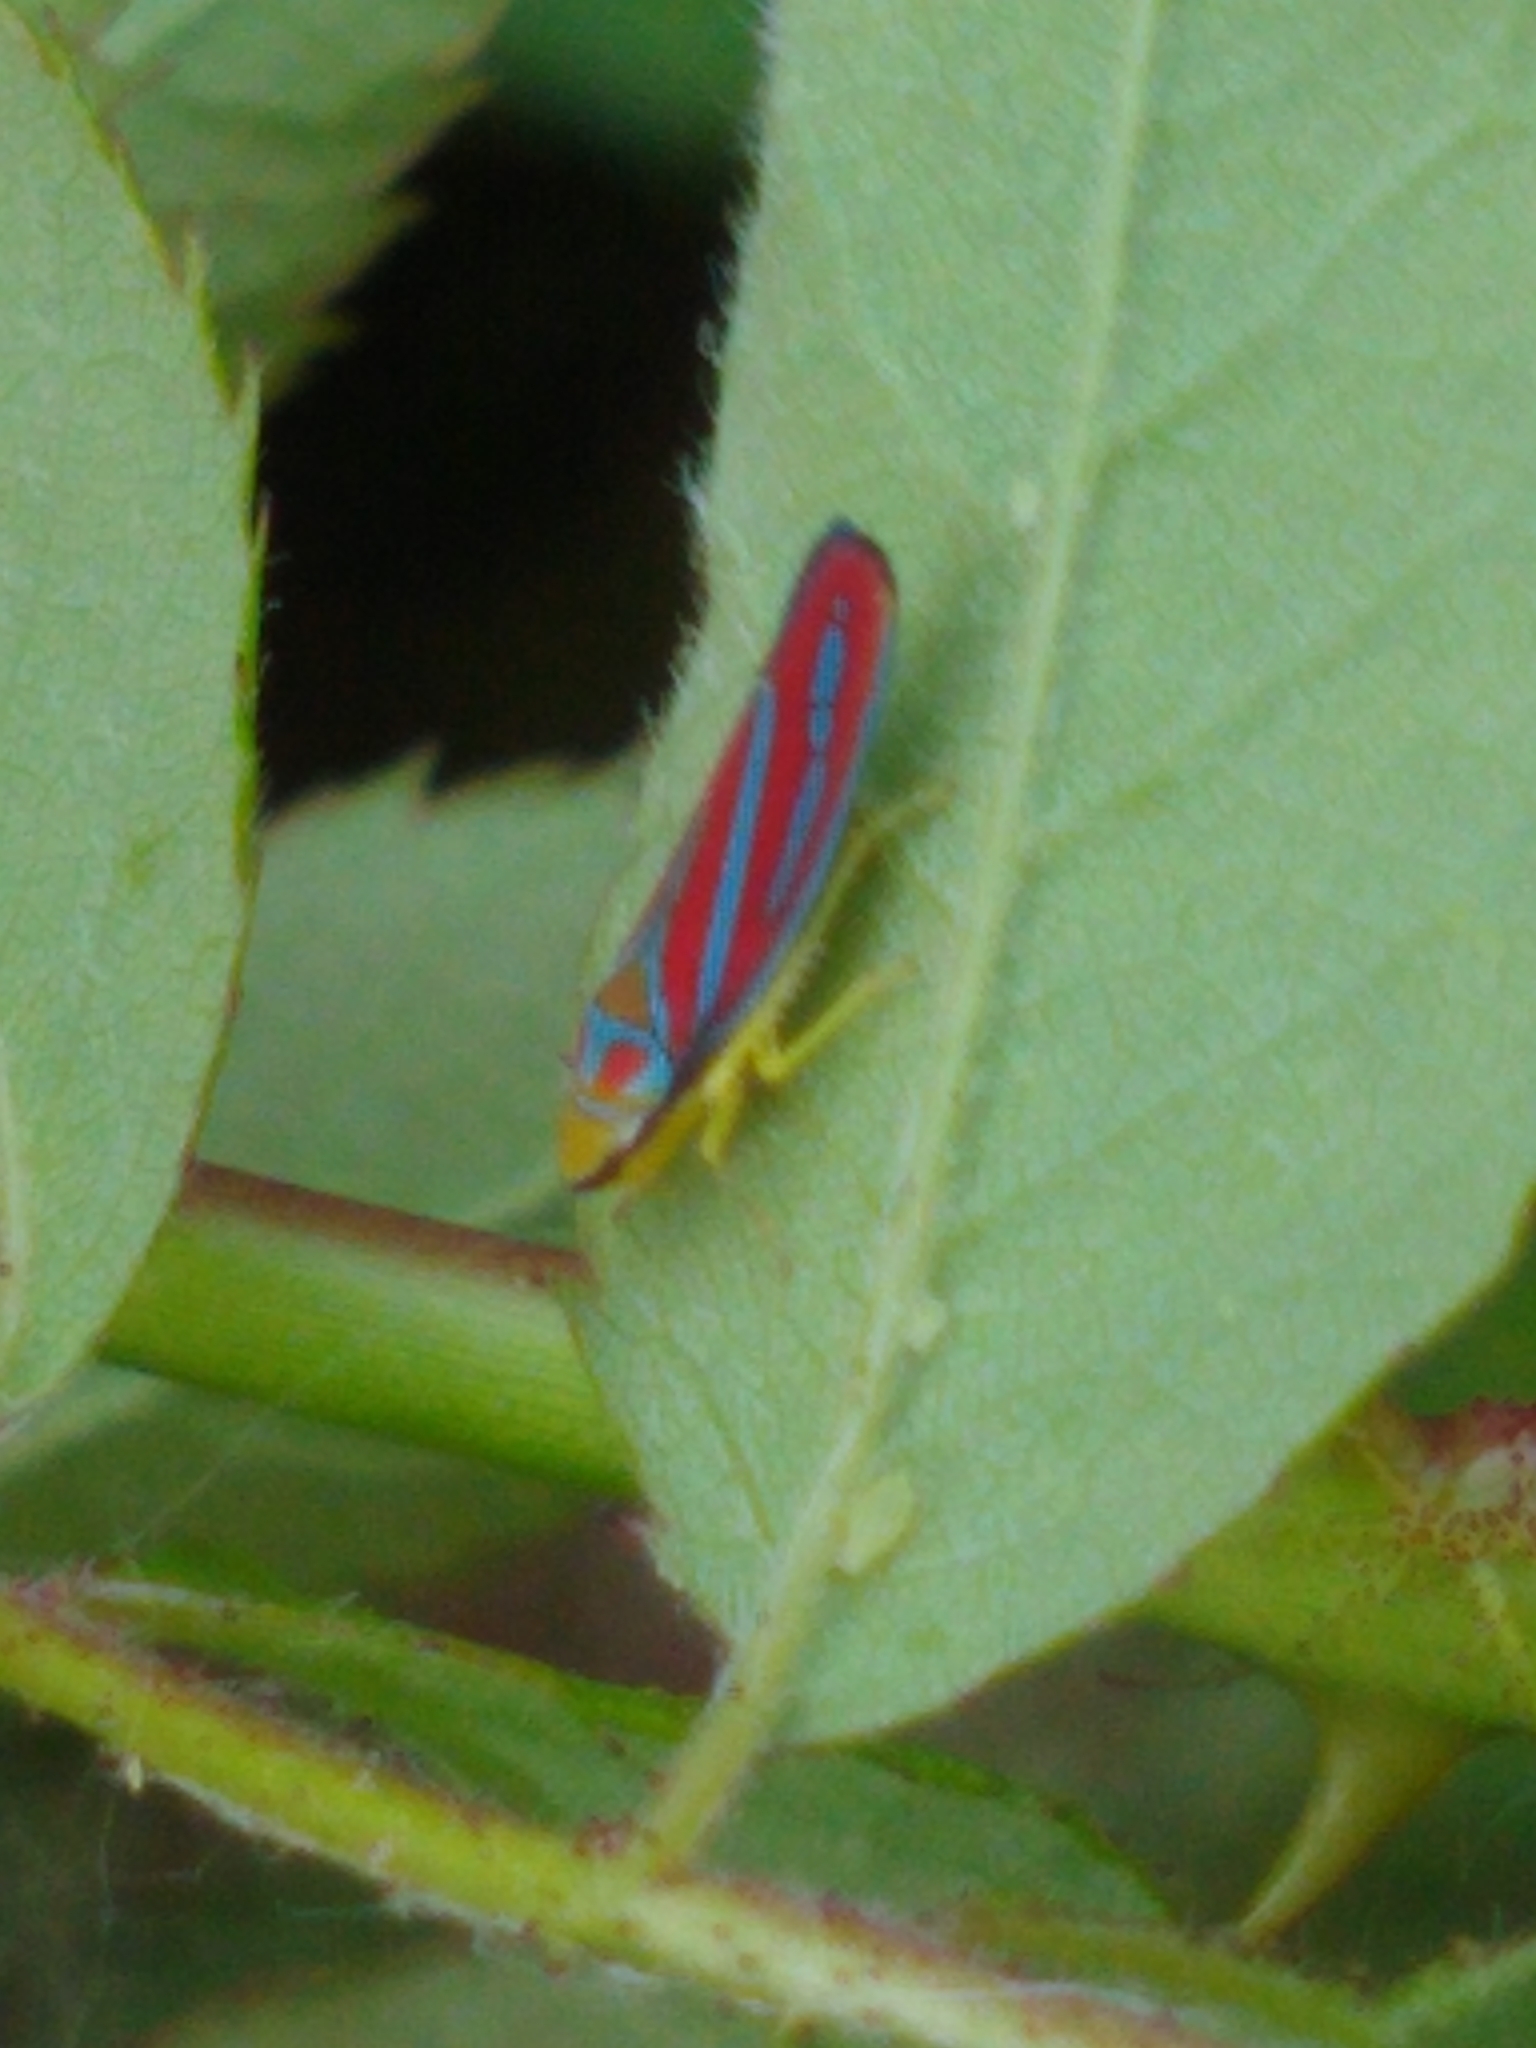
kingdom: Animalia
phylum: Arthropoda
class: Insecta
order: Hemiptera
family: Cicadellidae
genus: Graphocephala
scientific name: Graphocephala coccinea
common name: Candy-striped leafhopper
